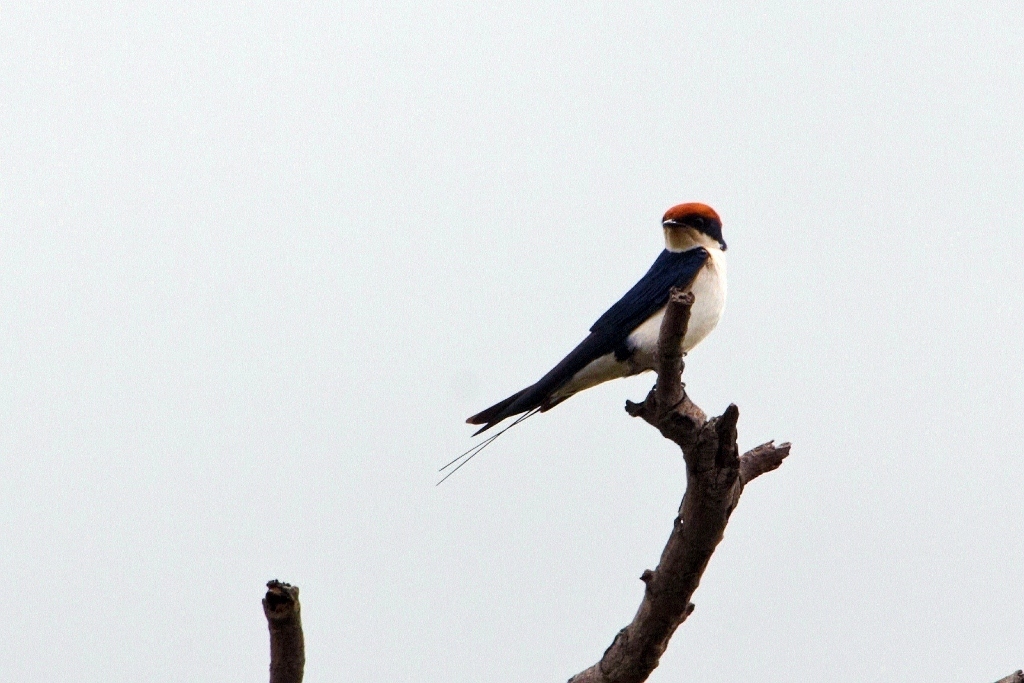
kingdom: Animalia
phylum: Chordata
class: Aves
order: Passeriformes
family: Hirundinidae
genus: Hirundo
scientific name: Hirundo smithii
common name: Wire-tailed swallow
